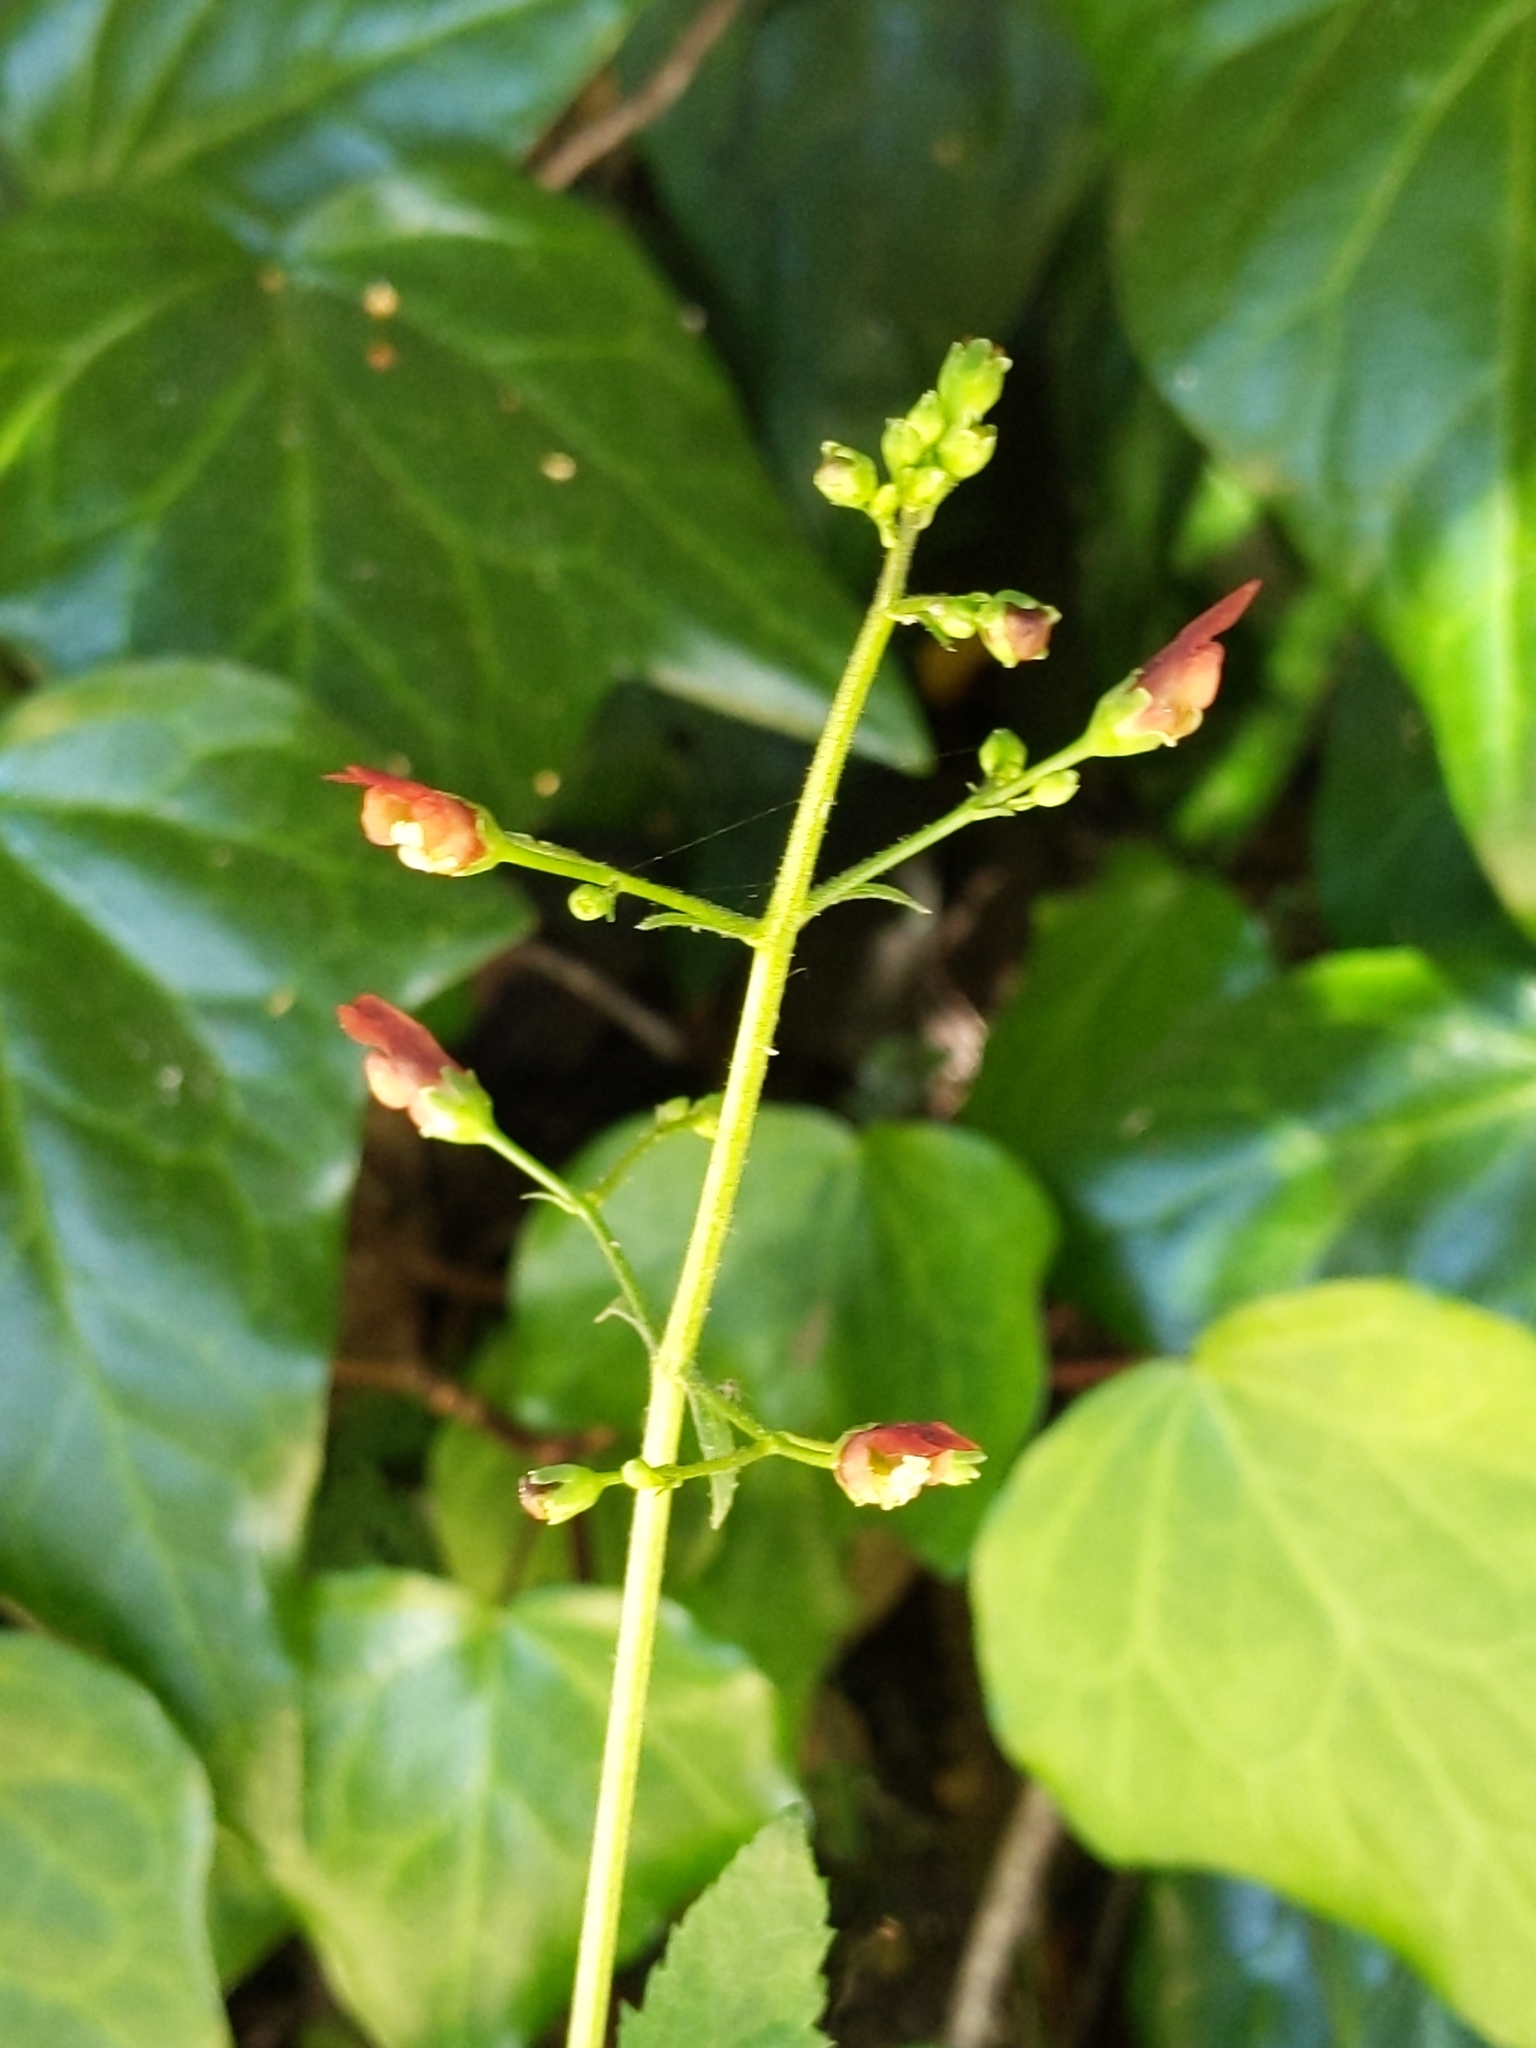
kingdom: Plantae
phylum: Tracheophyta
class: Magnoliopsida
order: Lamiales
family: Scrophulariaceae
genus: Scrophularia
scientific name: Scrophularia californica
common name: California figwort
